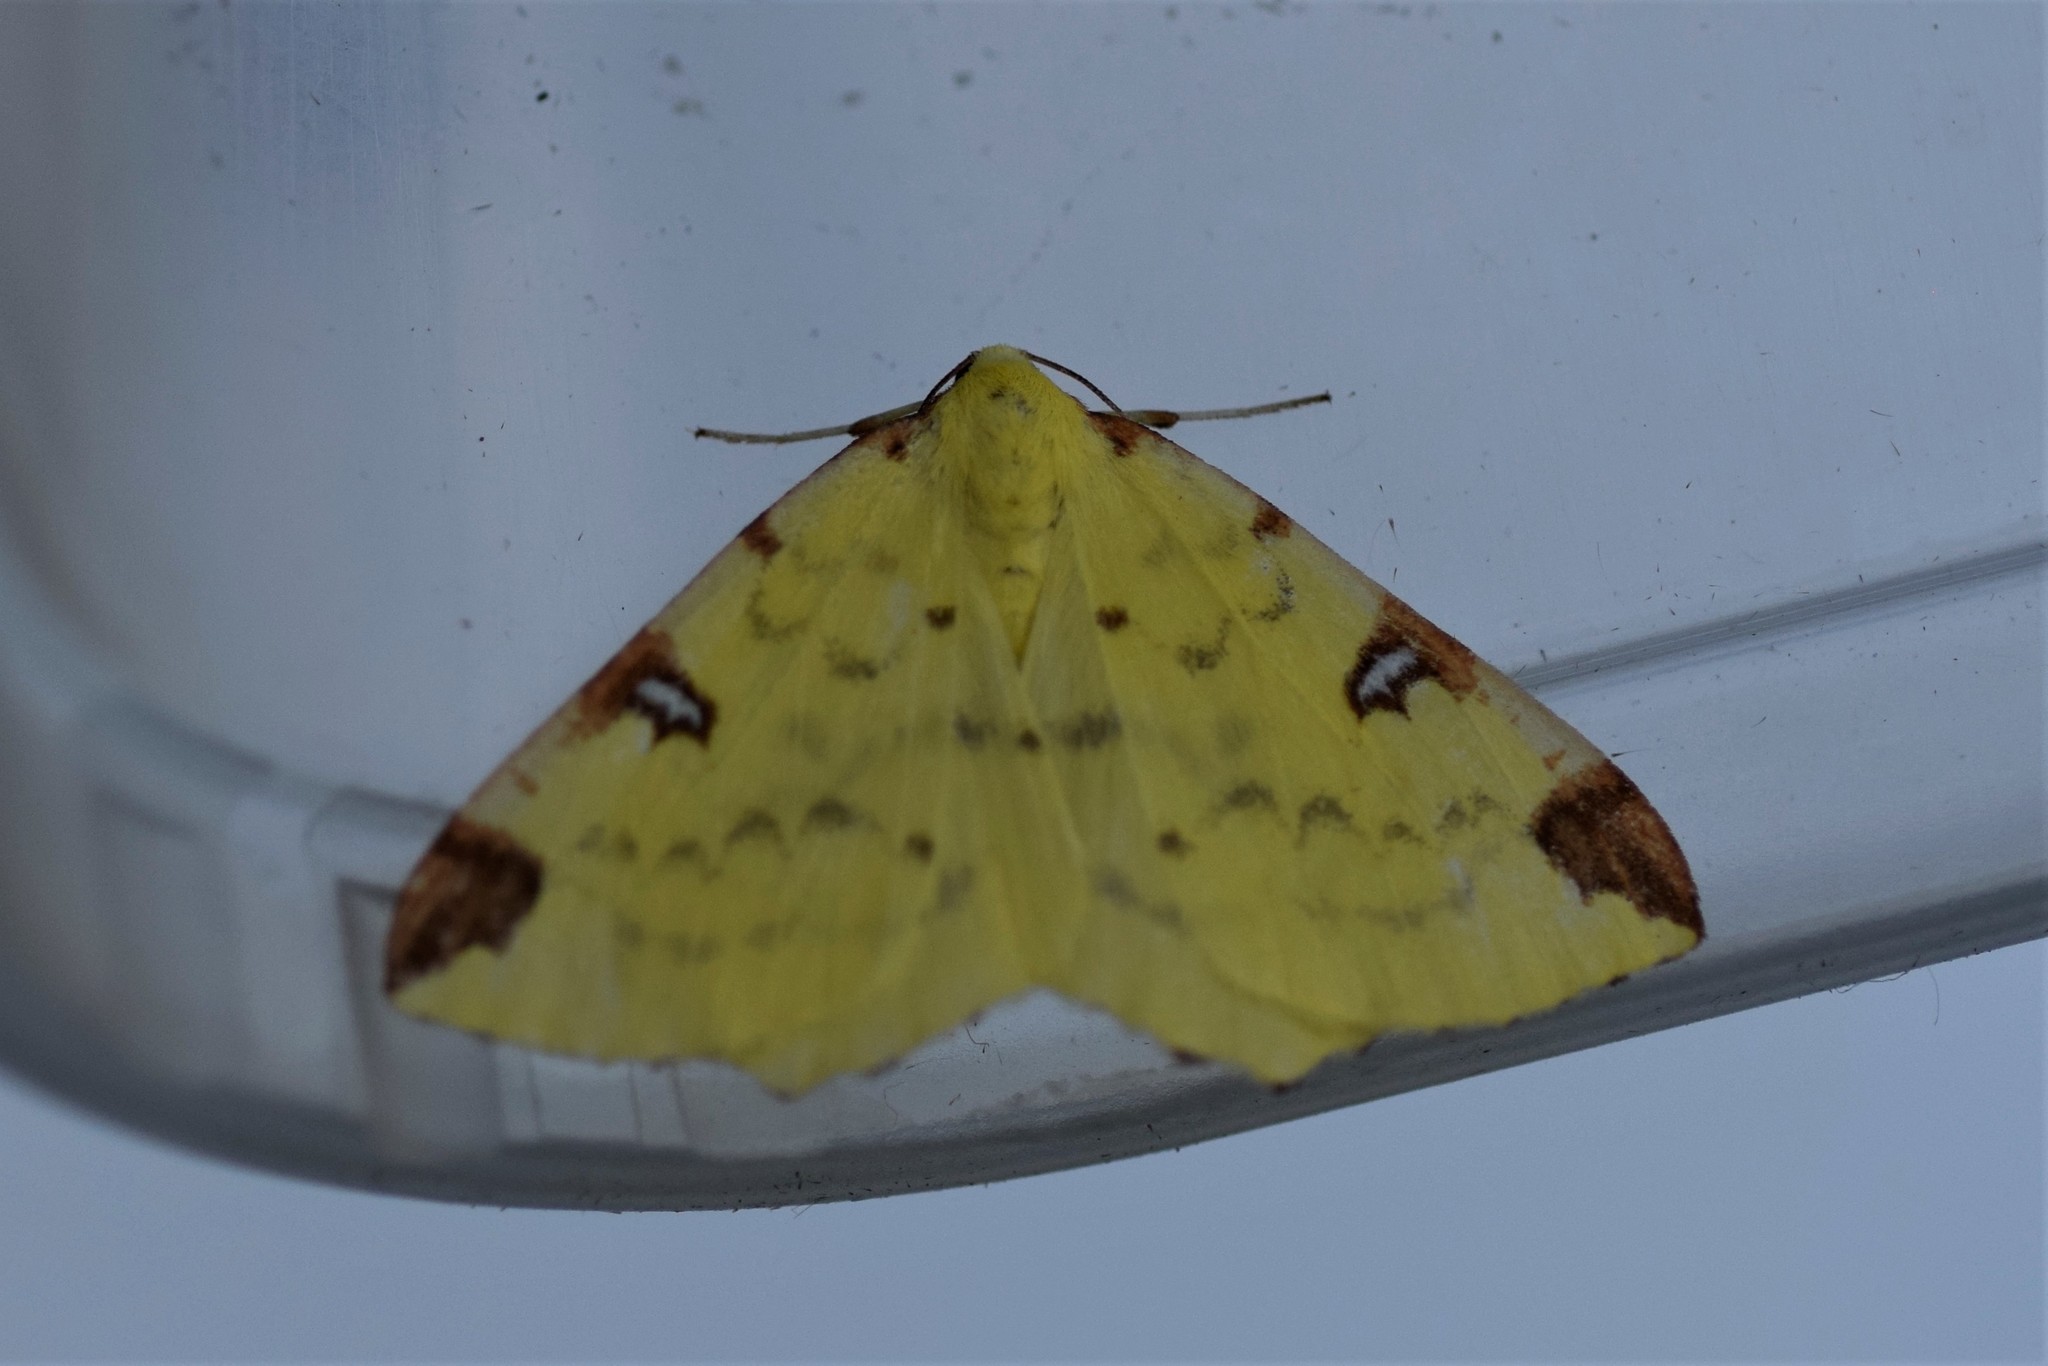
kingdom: Animalia
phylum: Arthropoda
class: Insecta
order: Lepidoptera
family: Geometridae
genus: Opisthograptis
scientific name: Opisthograptis luteolata
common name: Brimstone moth
